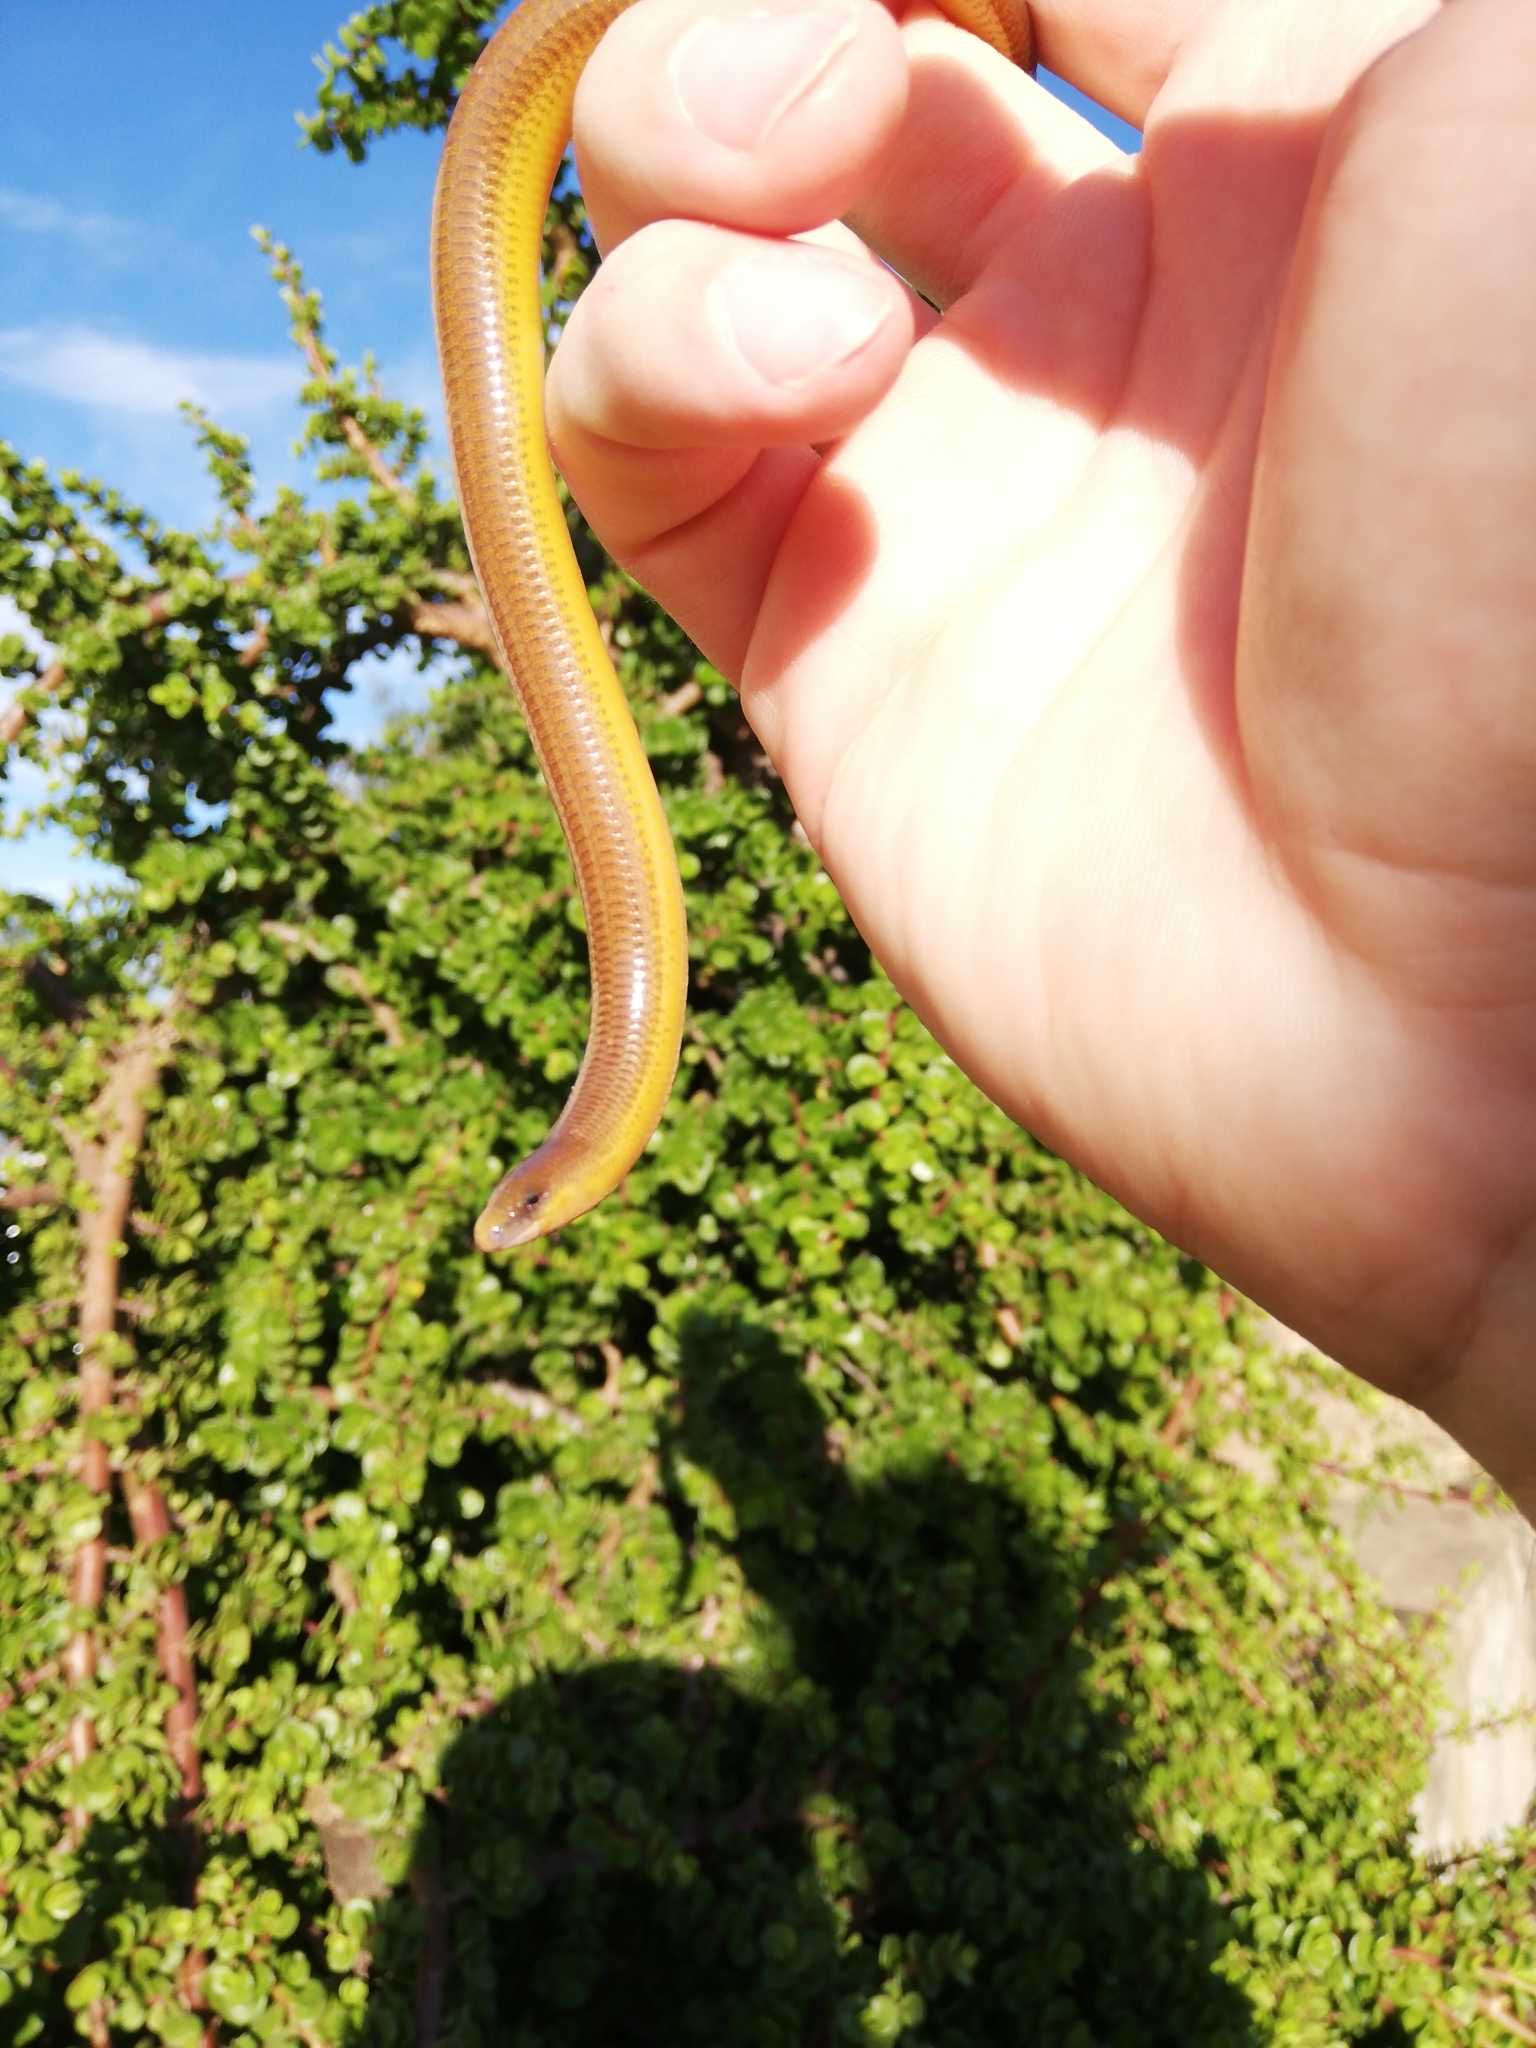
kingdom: Animalia
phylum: Chordata
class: Squamata
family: Scincidae
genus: Acontias
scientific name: Acontias orientalis
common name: Eastern cape legless skink
